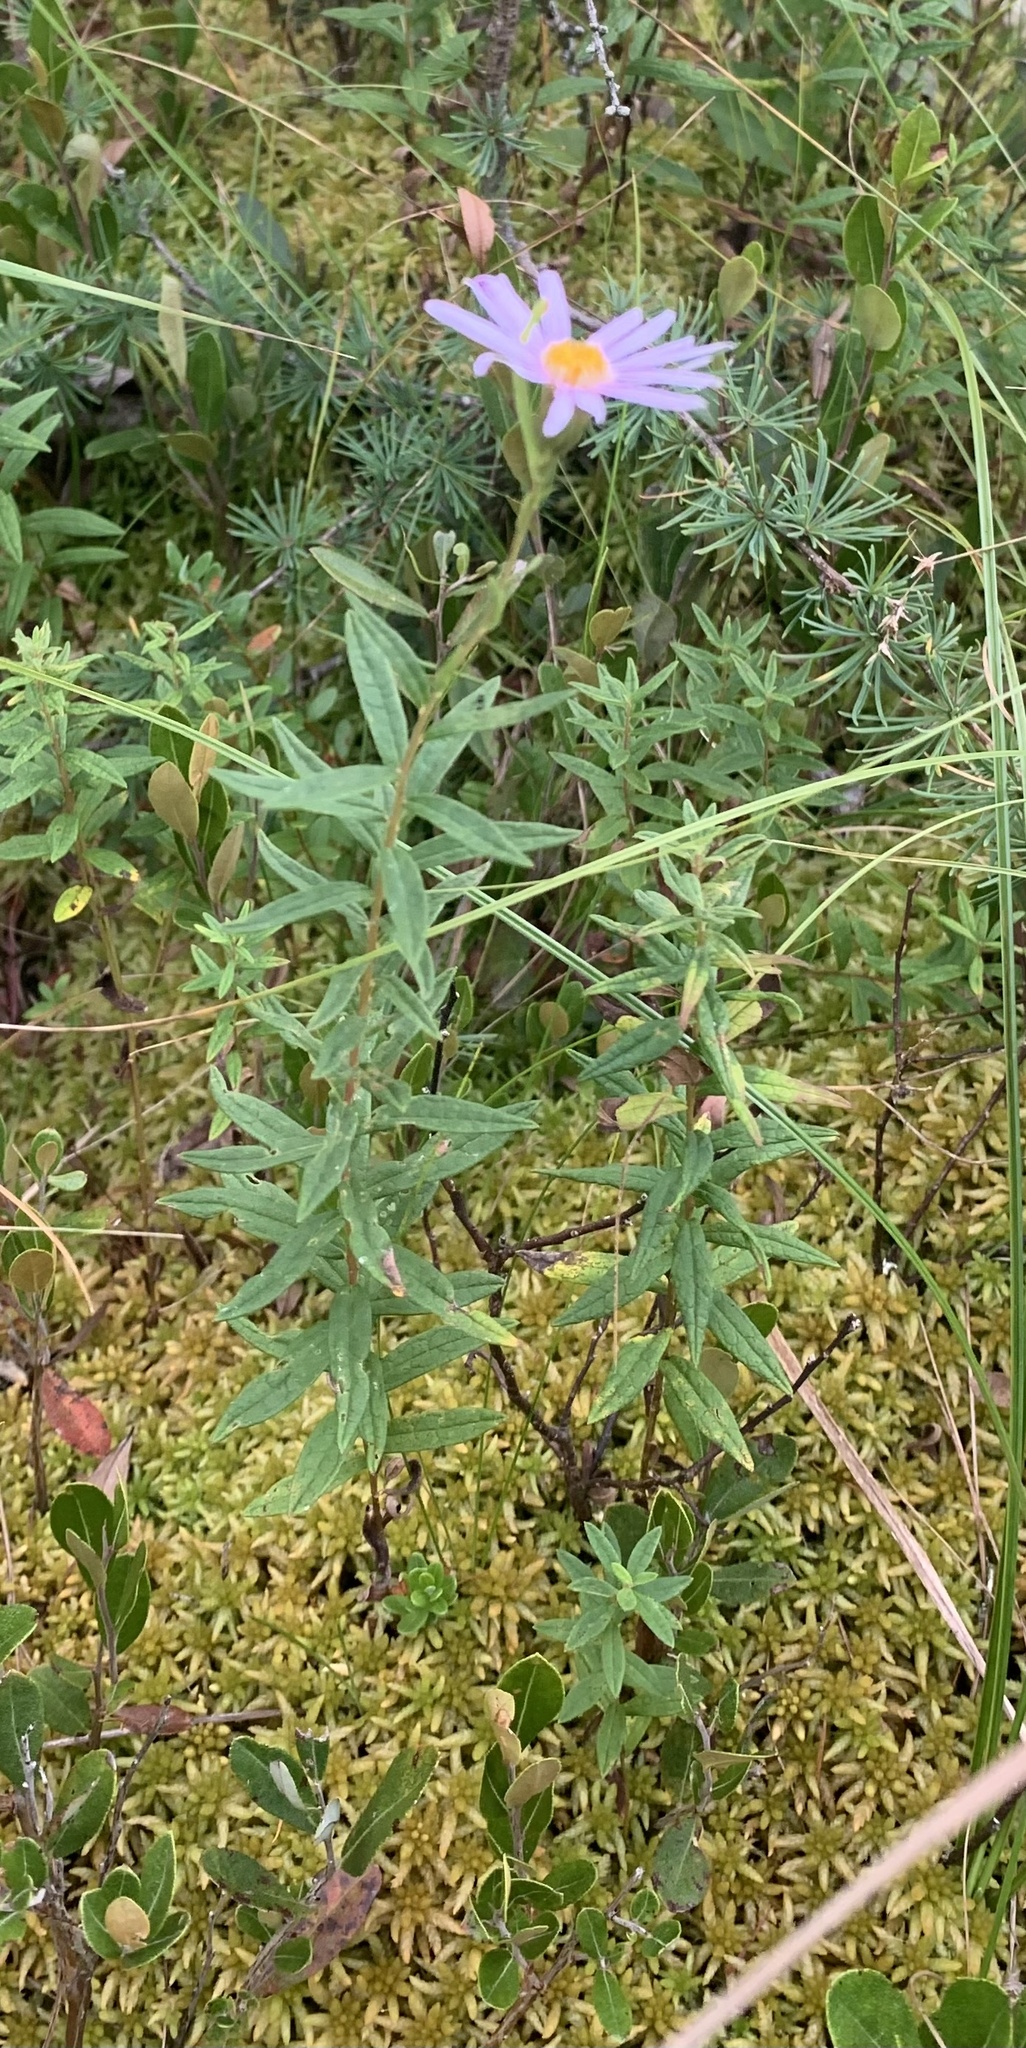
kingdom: Plantae
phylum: Tracheophyta
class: Magnoliopsida
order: Asterales
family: Asteraceae
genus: Oclemena
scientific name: Oclemena nemoralis
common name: Bog aster
